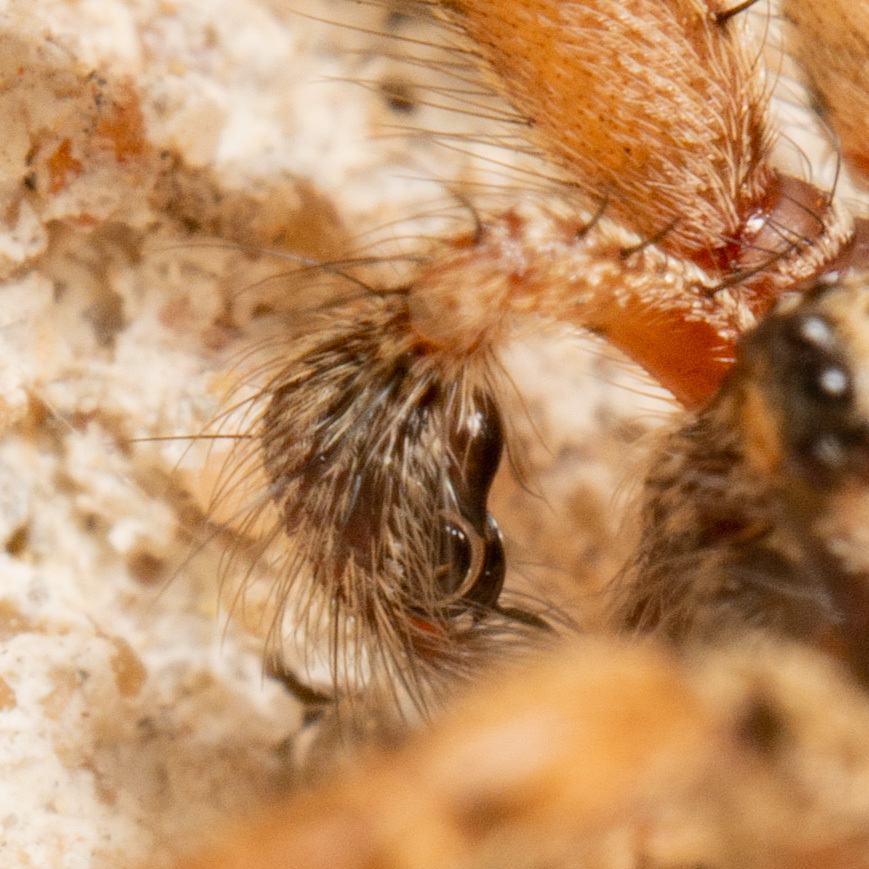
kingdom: Animalia
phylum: Arthropoda
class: Arachnida
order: Araneae
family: Agelenidae
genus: Barronopsis
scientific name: Barronopsis texana
